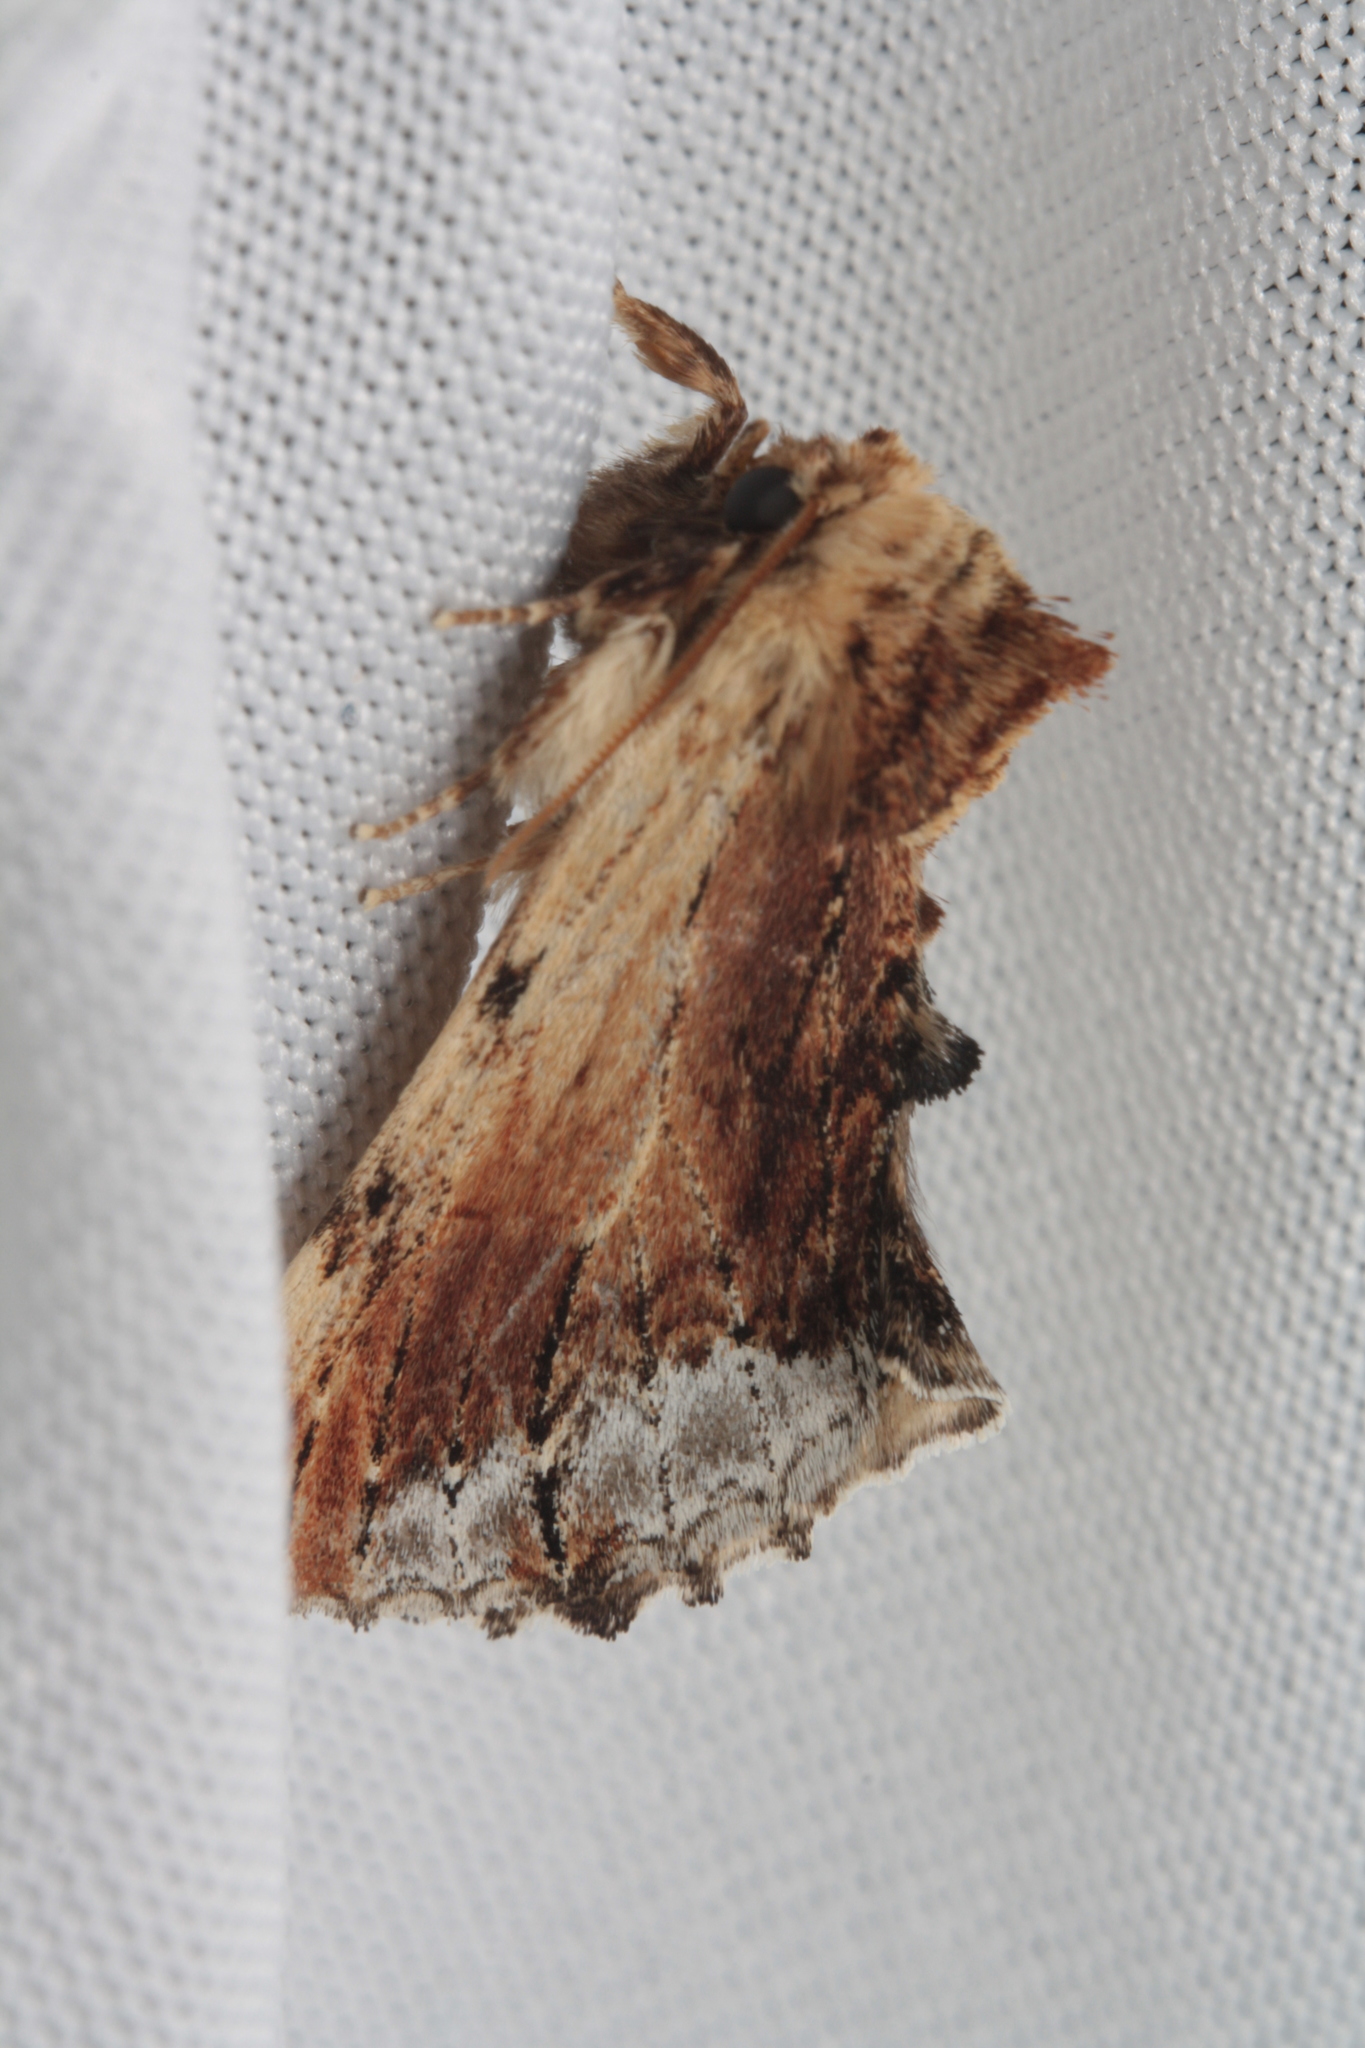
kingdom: Animalia
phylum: Arthropoda
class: Insecta
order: Lepidoptera
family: Notodontidae
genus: Ptilodon
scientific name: Ptilodon cucullina
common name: Maple prominent
